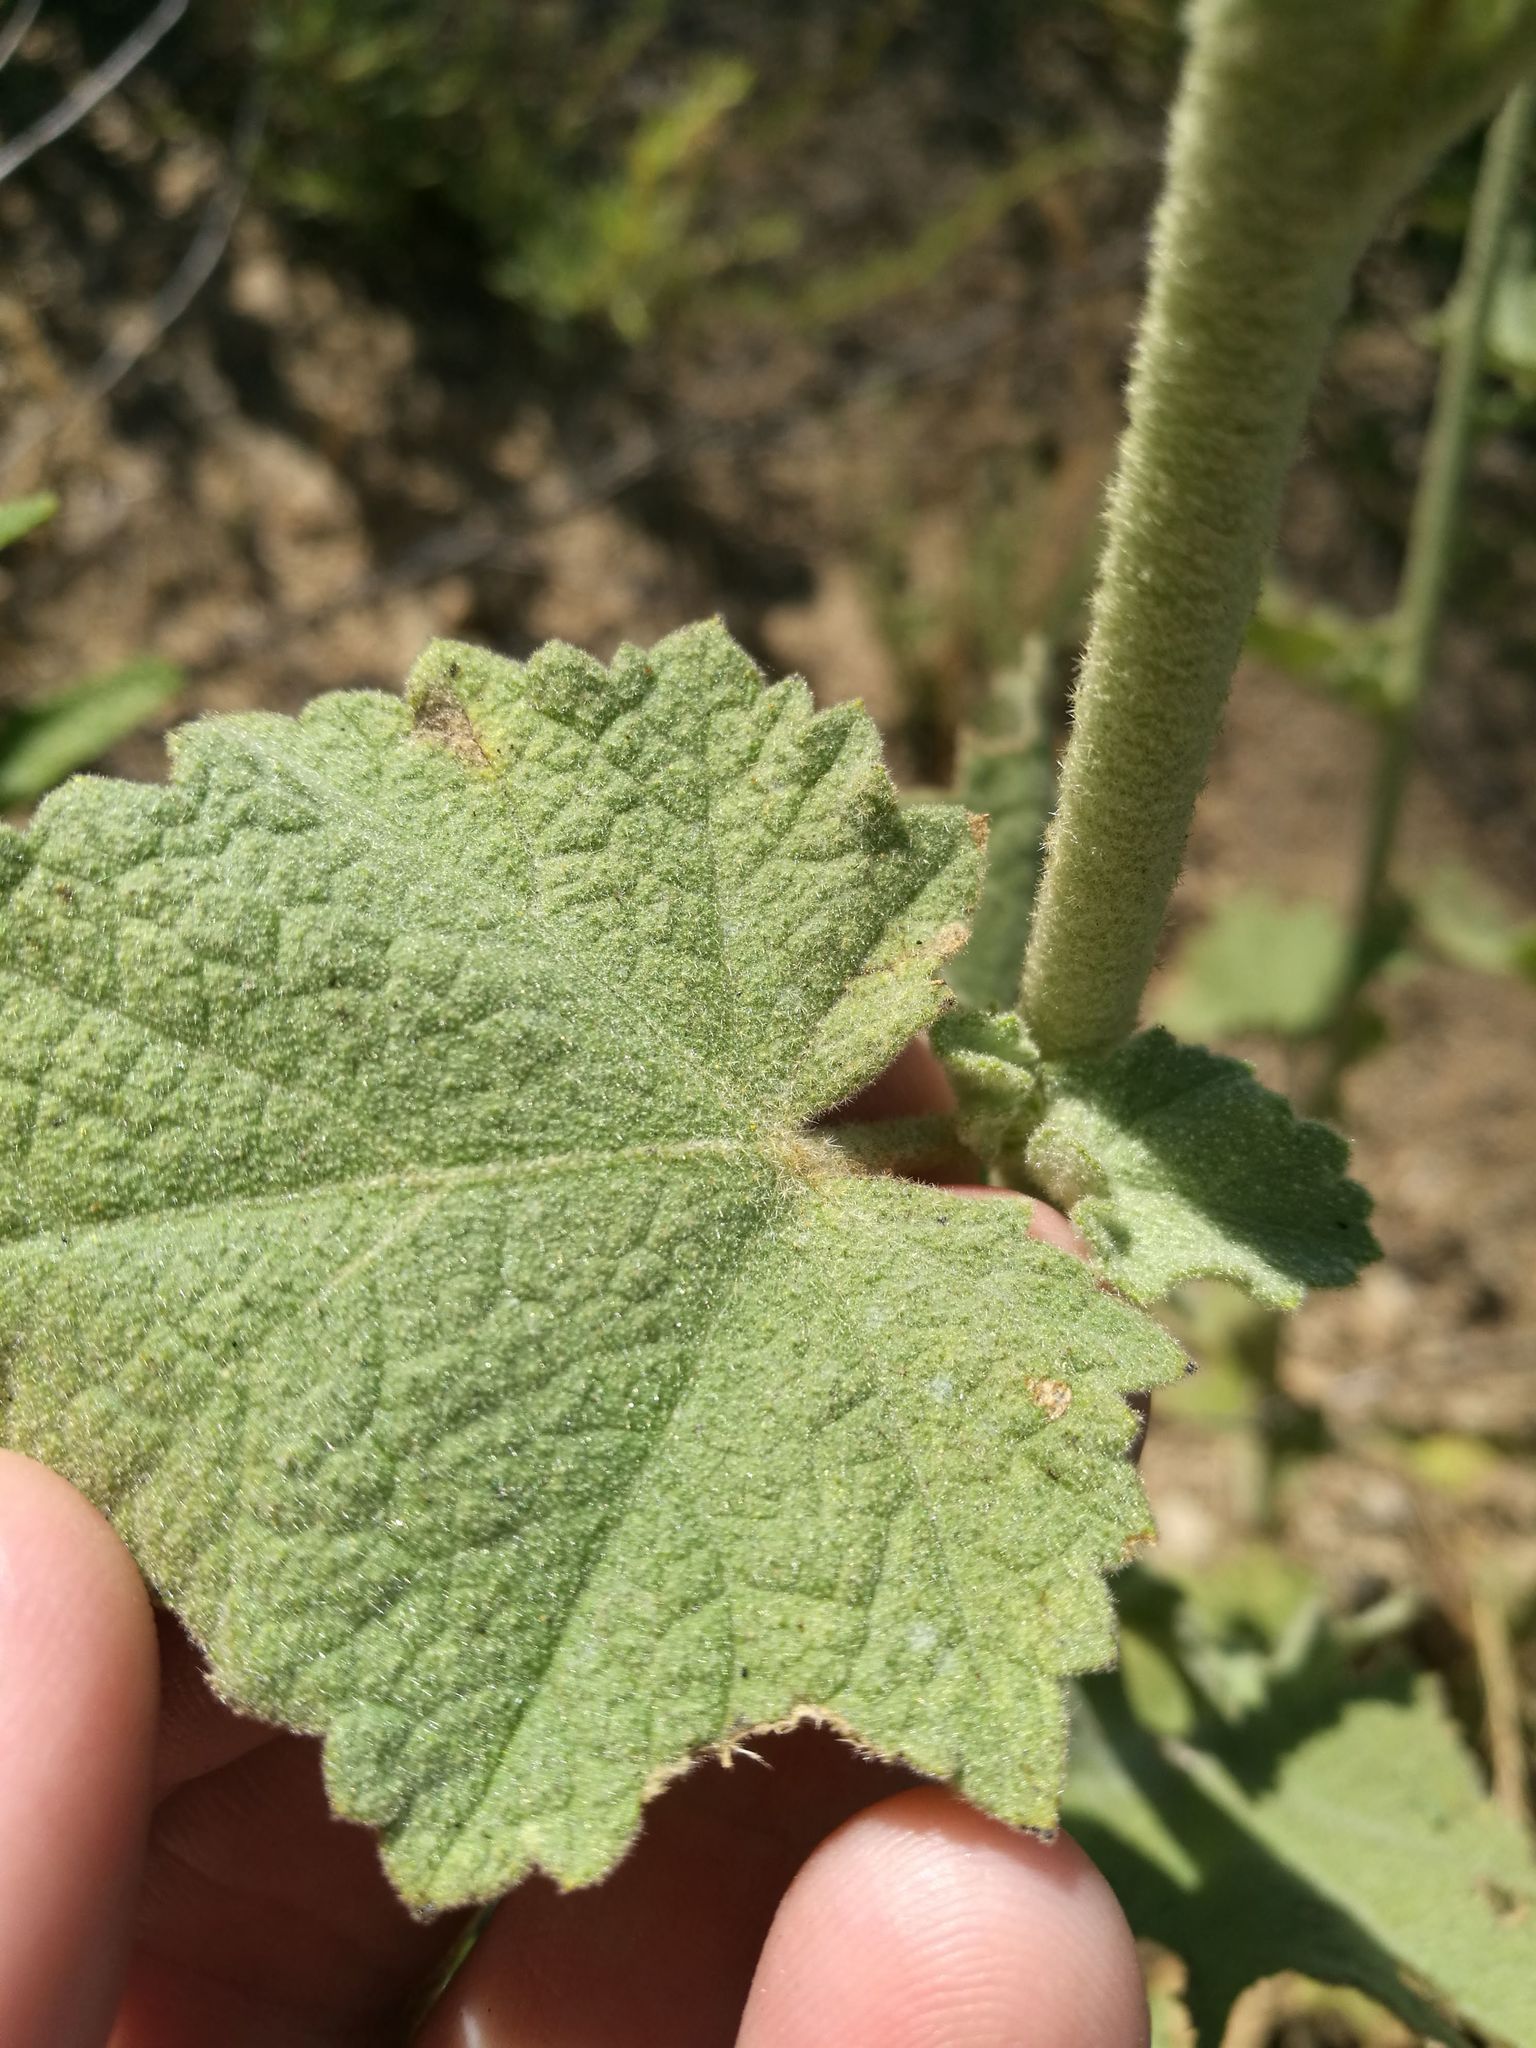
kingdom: Plantae
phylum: Tracheophyta
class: Magnoliopsida
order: Malvales
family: Malvaceae
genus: Malacothamnus
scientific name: Malacothamnus fremontii
